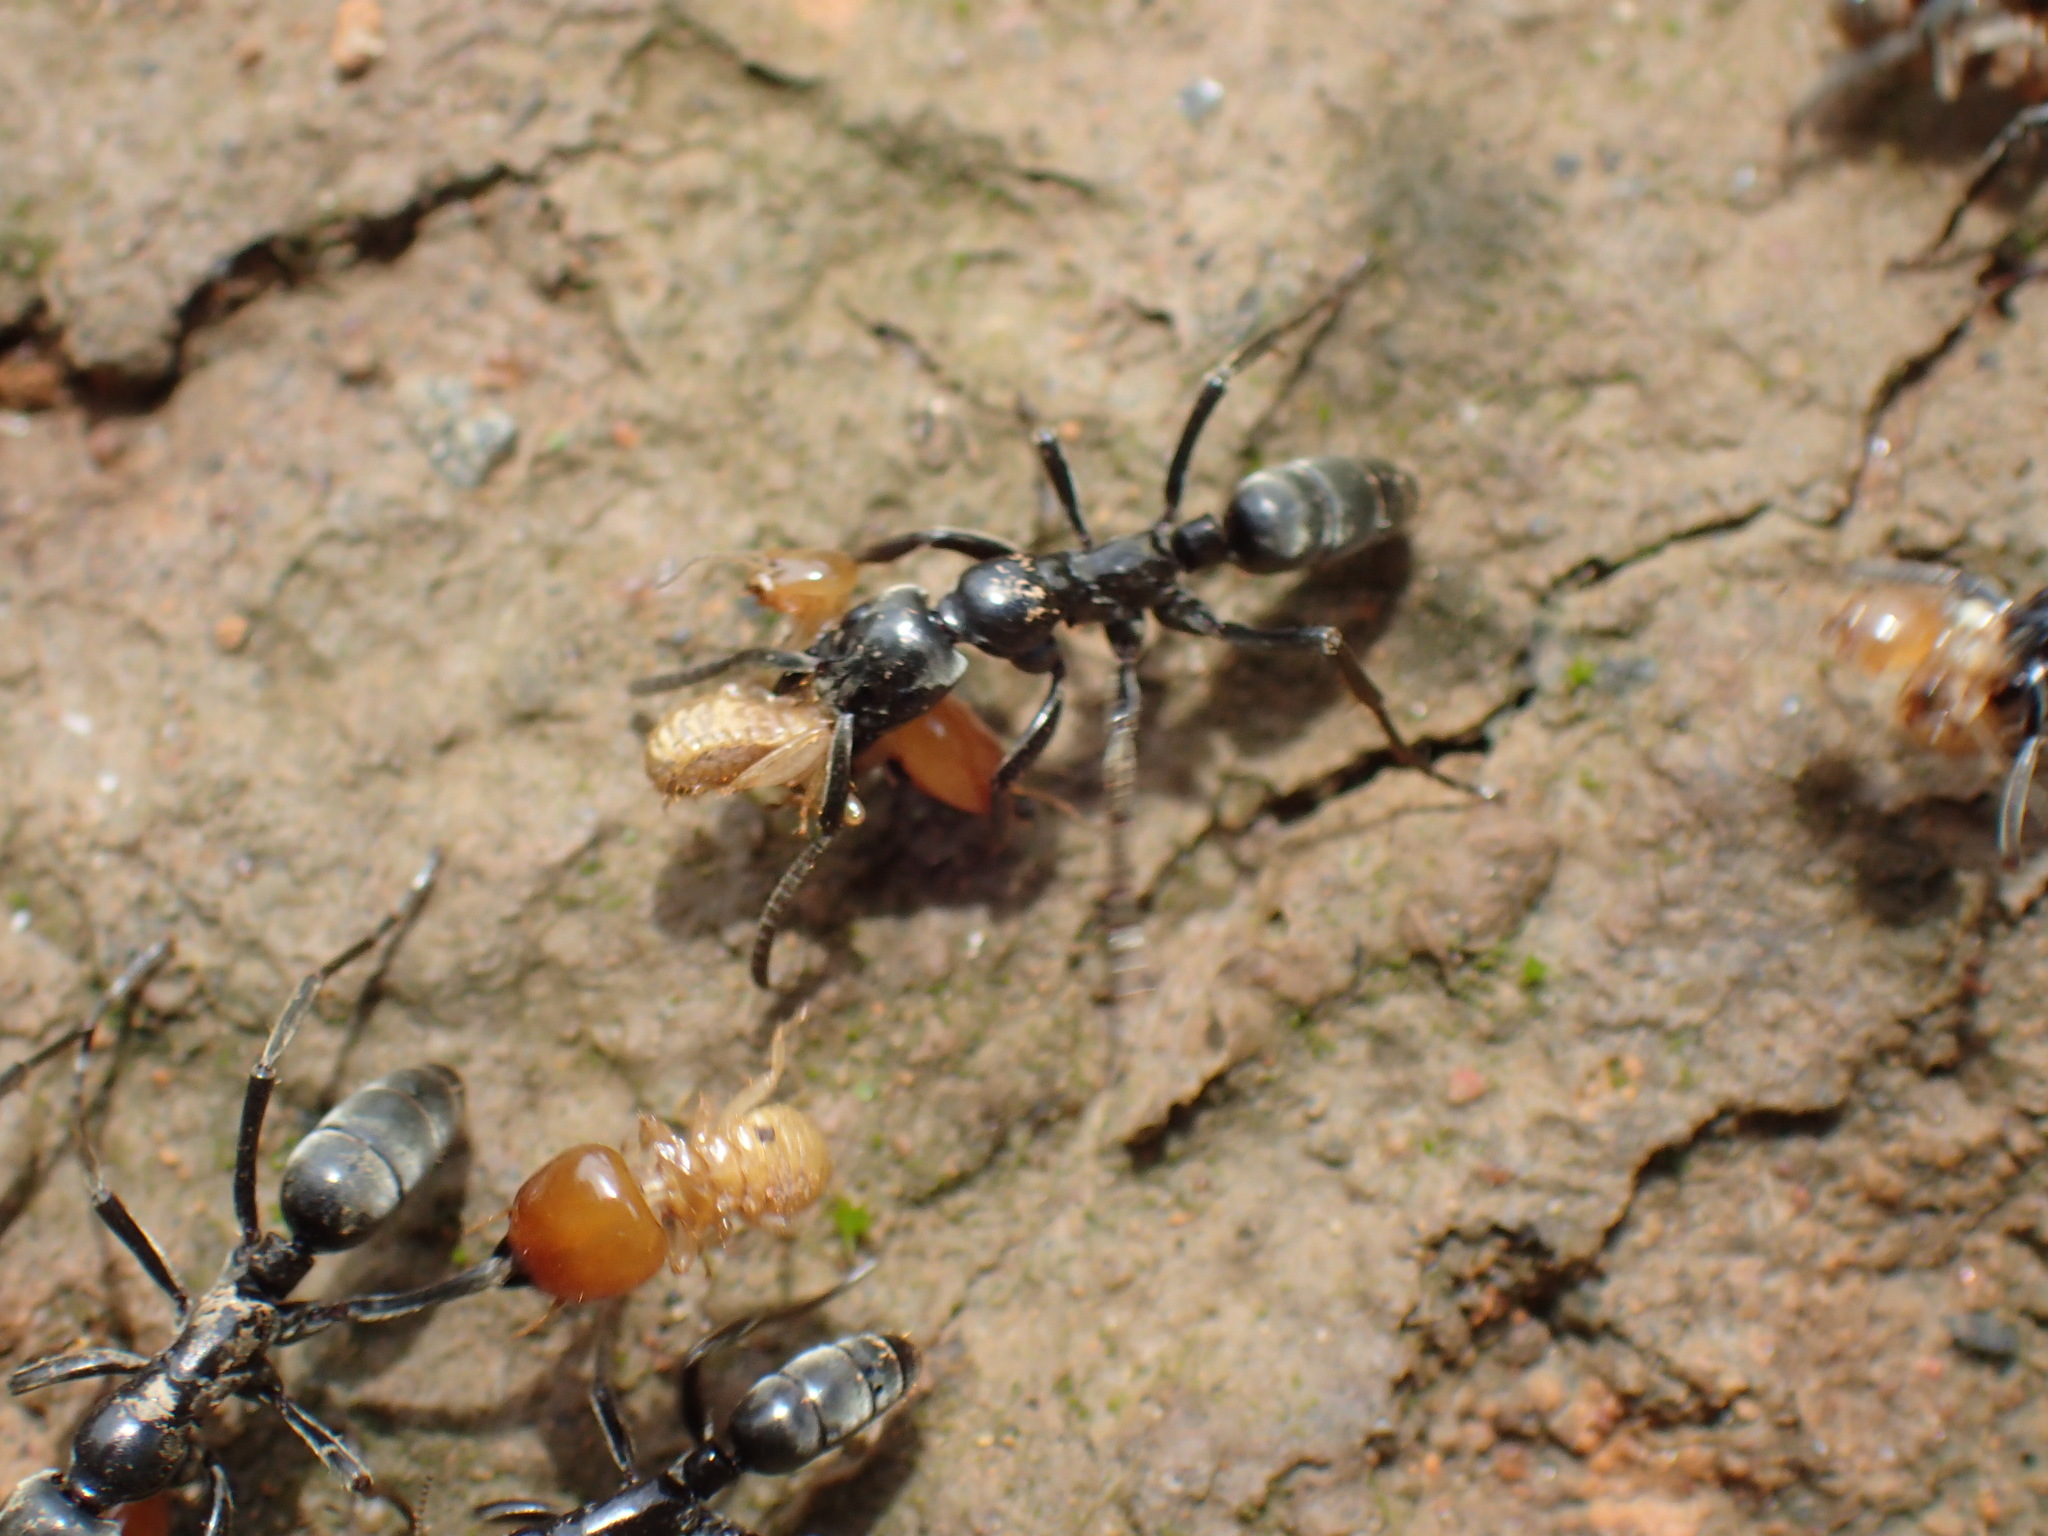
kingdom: Animalia
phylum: Arthropoda
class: Insecta
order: Hymenoptera
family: Formicidae
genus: Megaponera
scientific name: Megaponera analis
